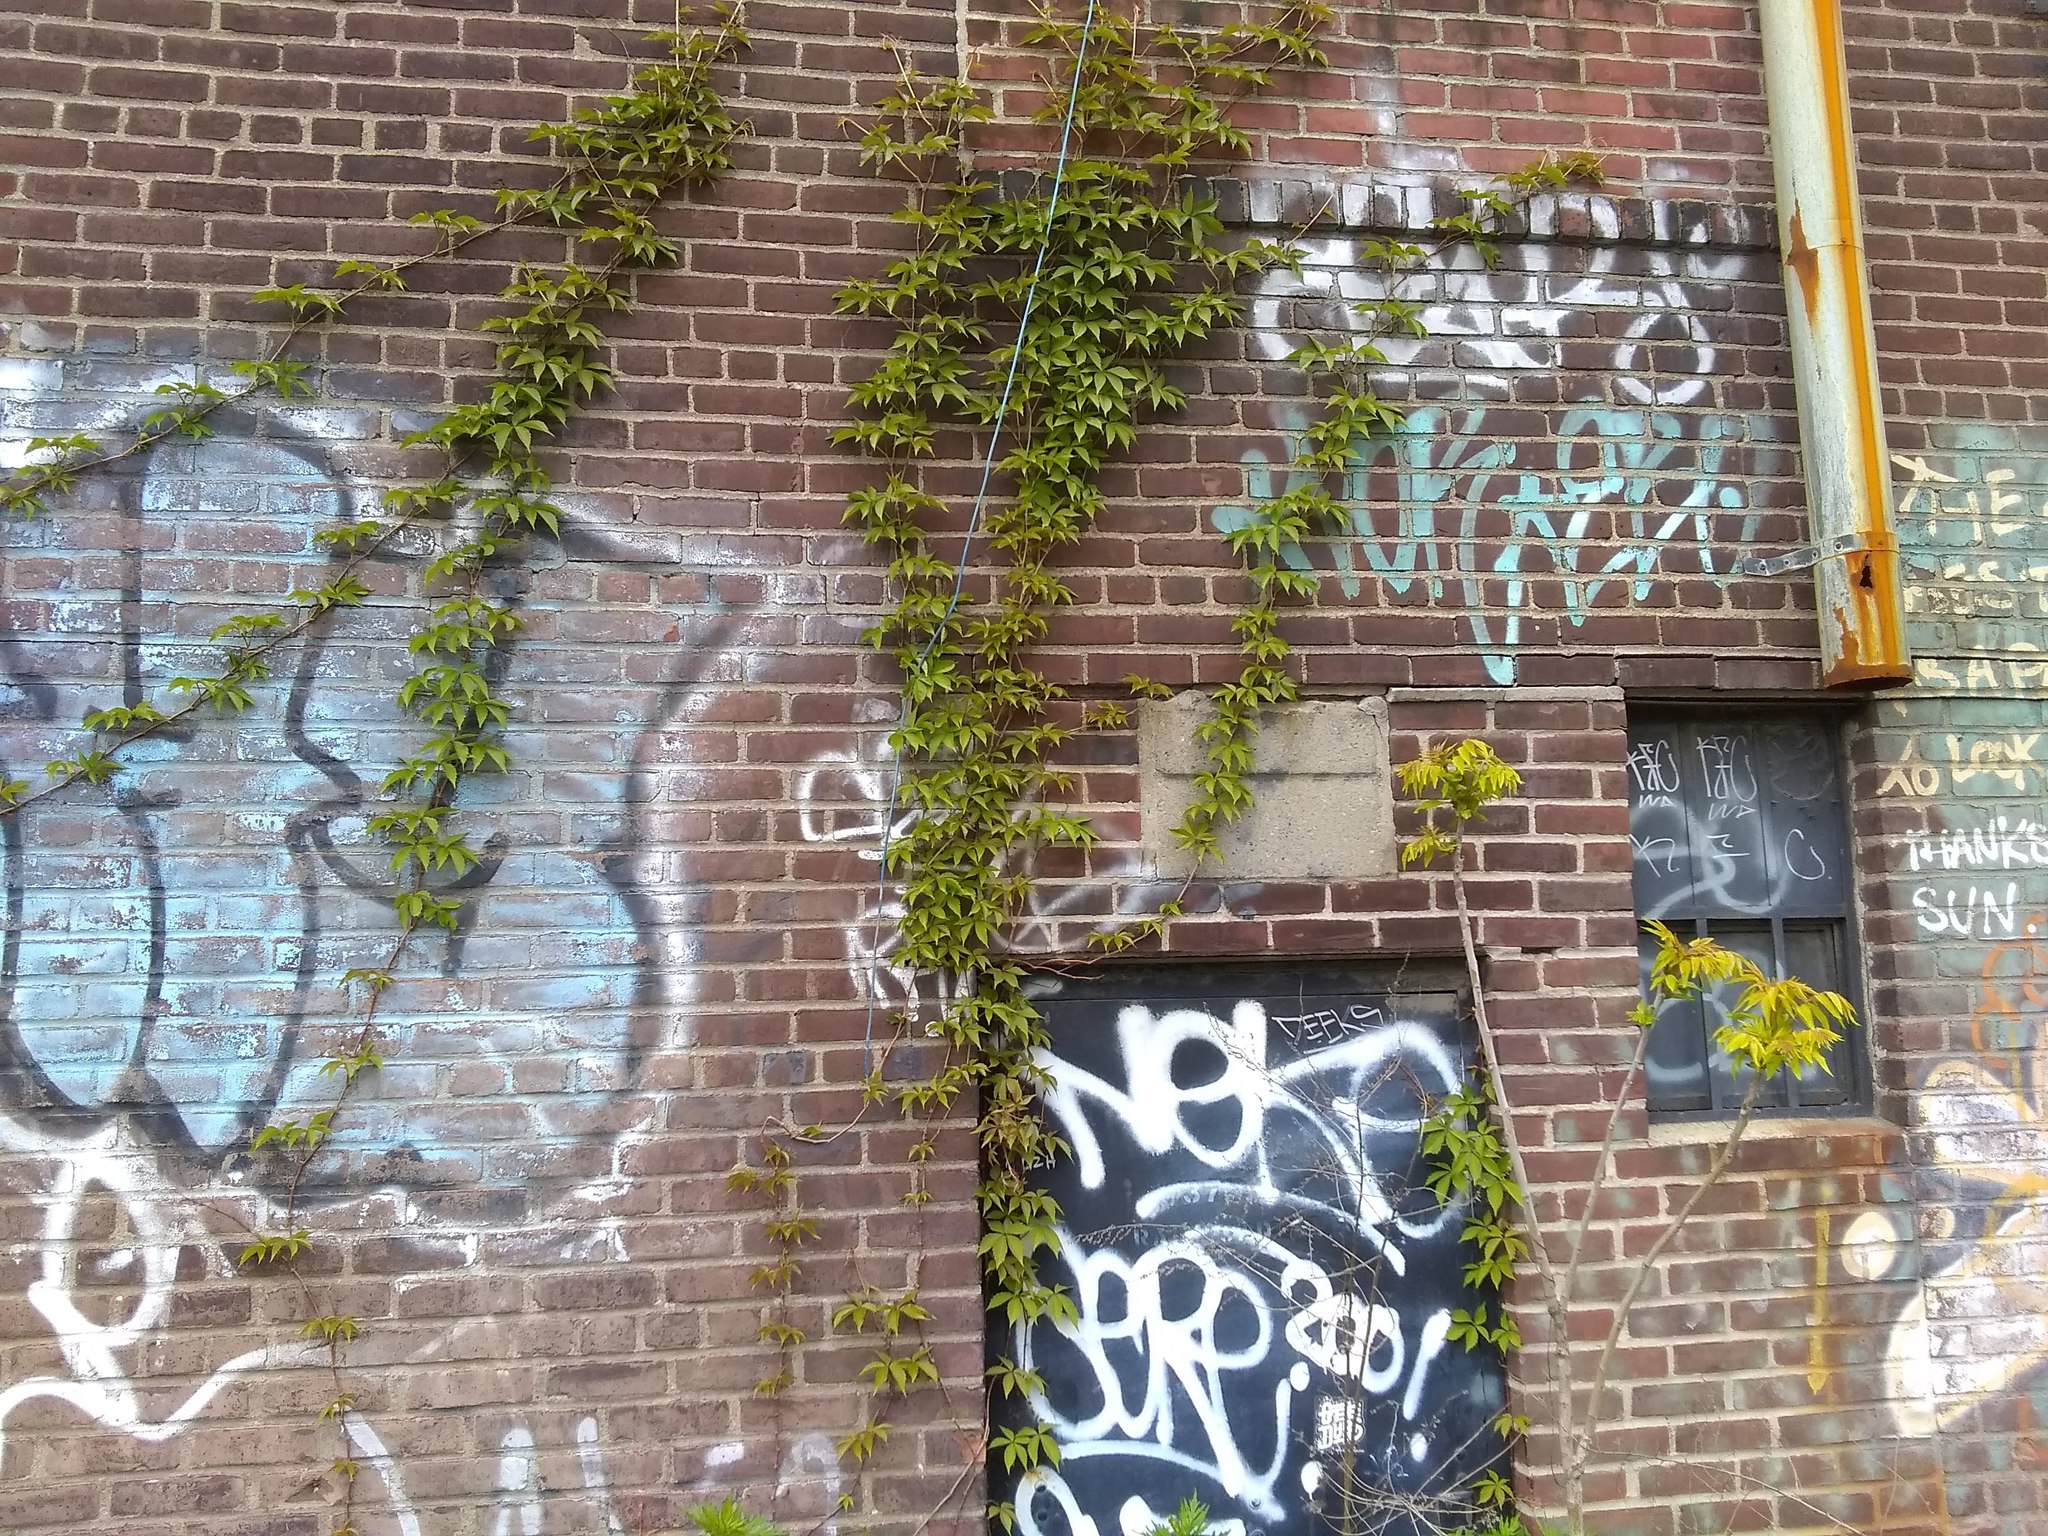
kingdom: Plantae
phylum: Tracheophyta
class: Magnoliopsida
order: Vitales
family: Vitaceae
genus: Parthenocissus
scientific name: Parthenocissus quinquefolia
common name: Virginia-creeper
